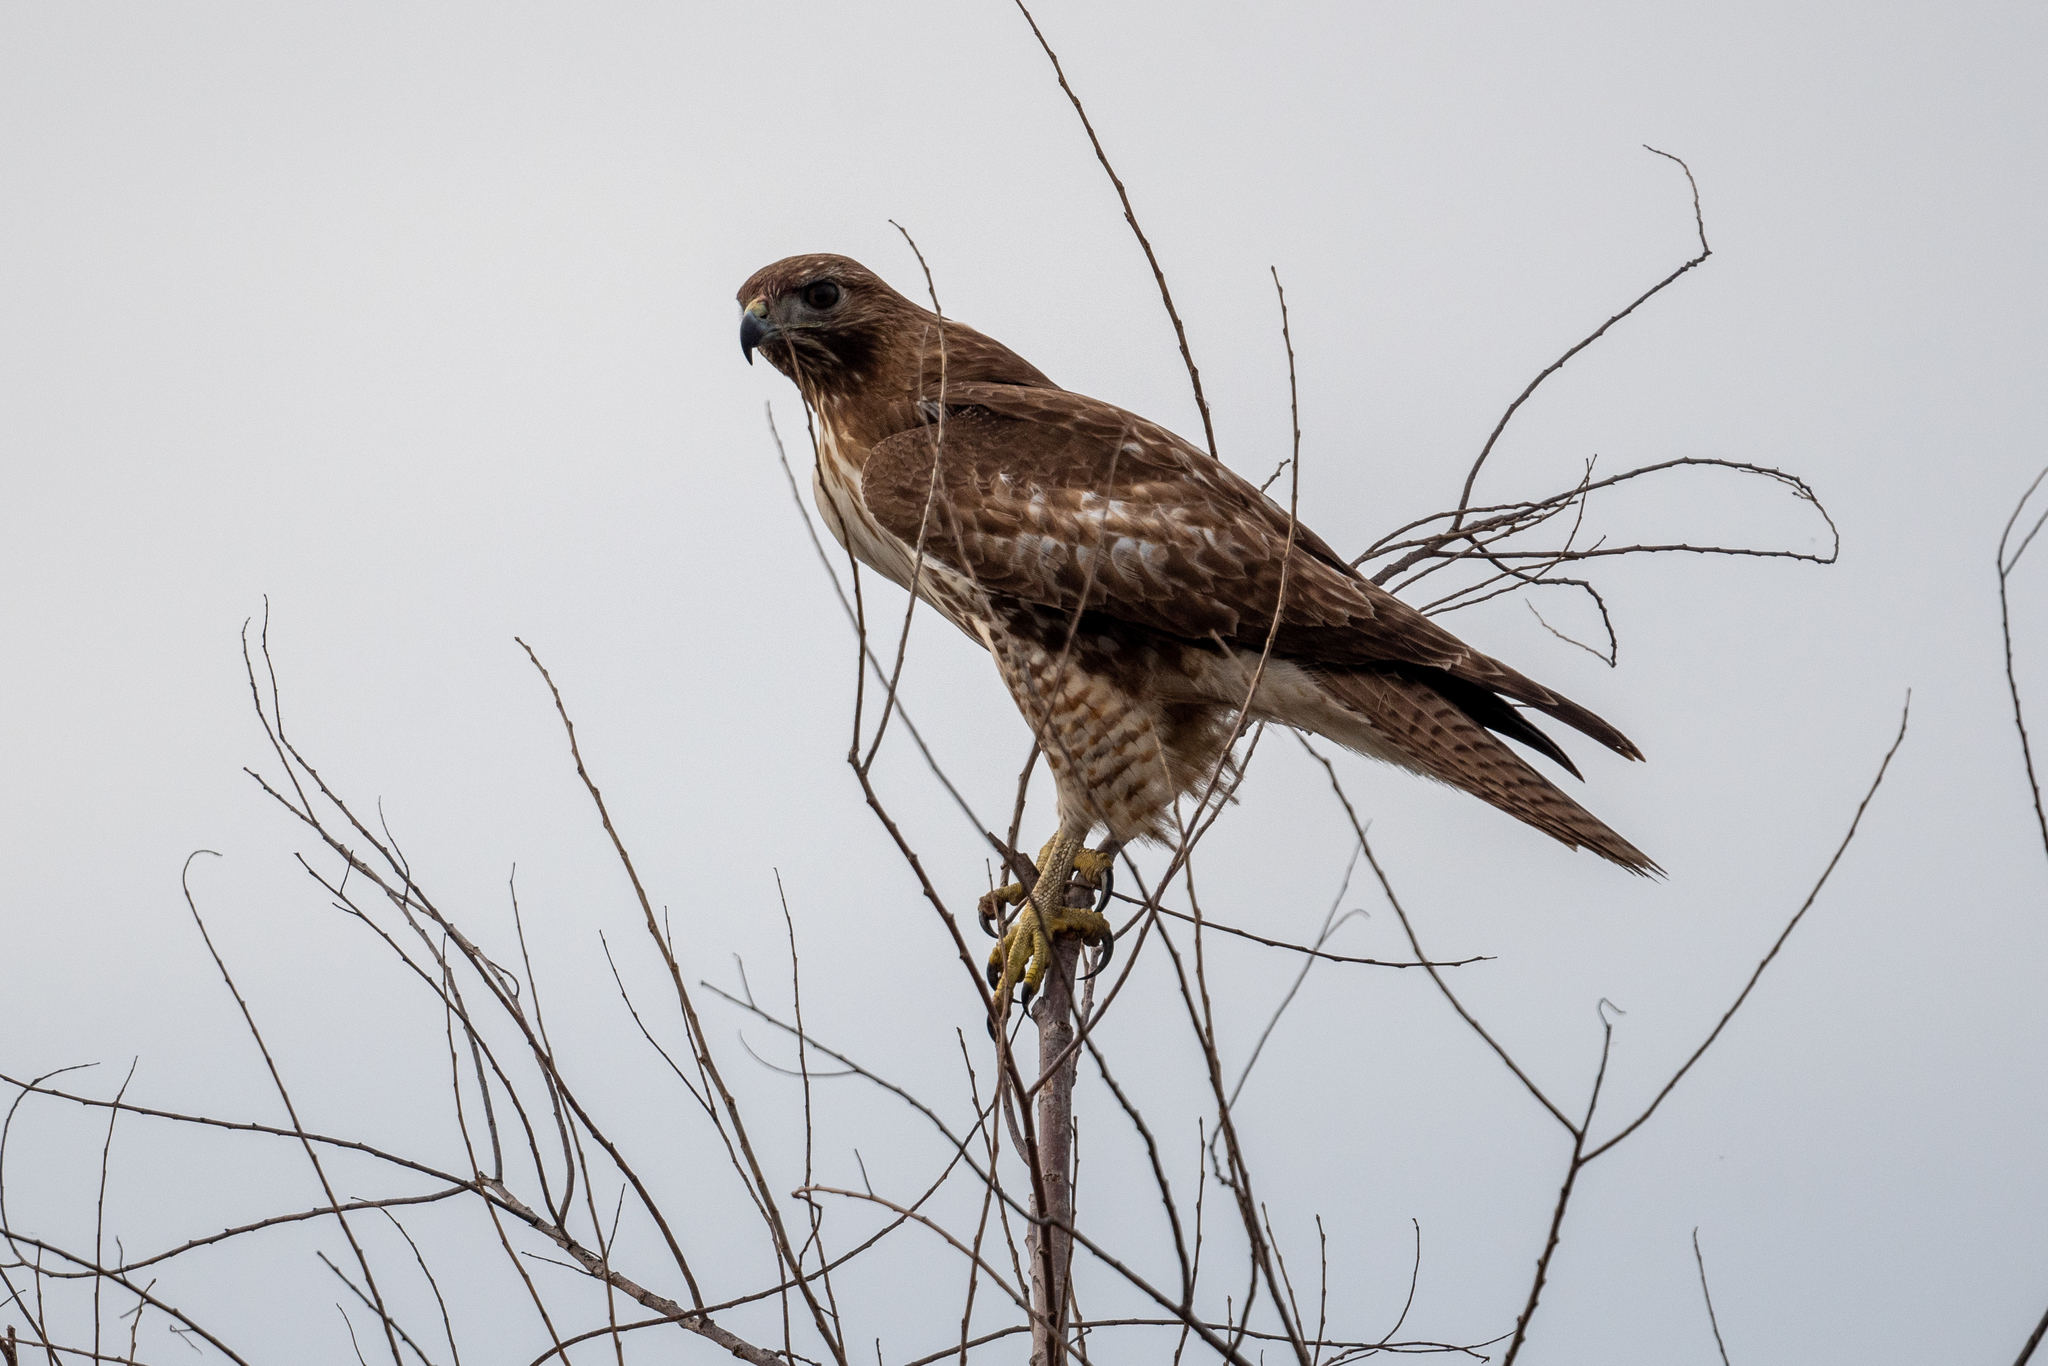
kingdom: Animalia
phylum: Chordata
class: Aves
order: Accipitriformes
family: Accipitridae
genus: Buteo
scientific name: Buteo jamaicensis
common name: Red-tailed hawk
